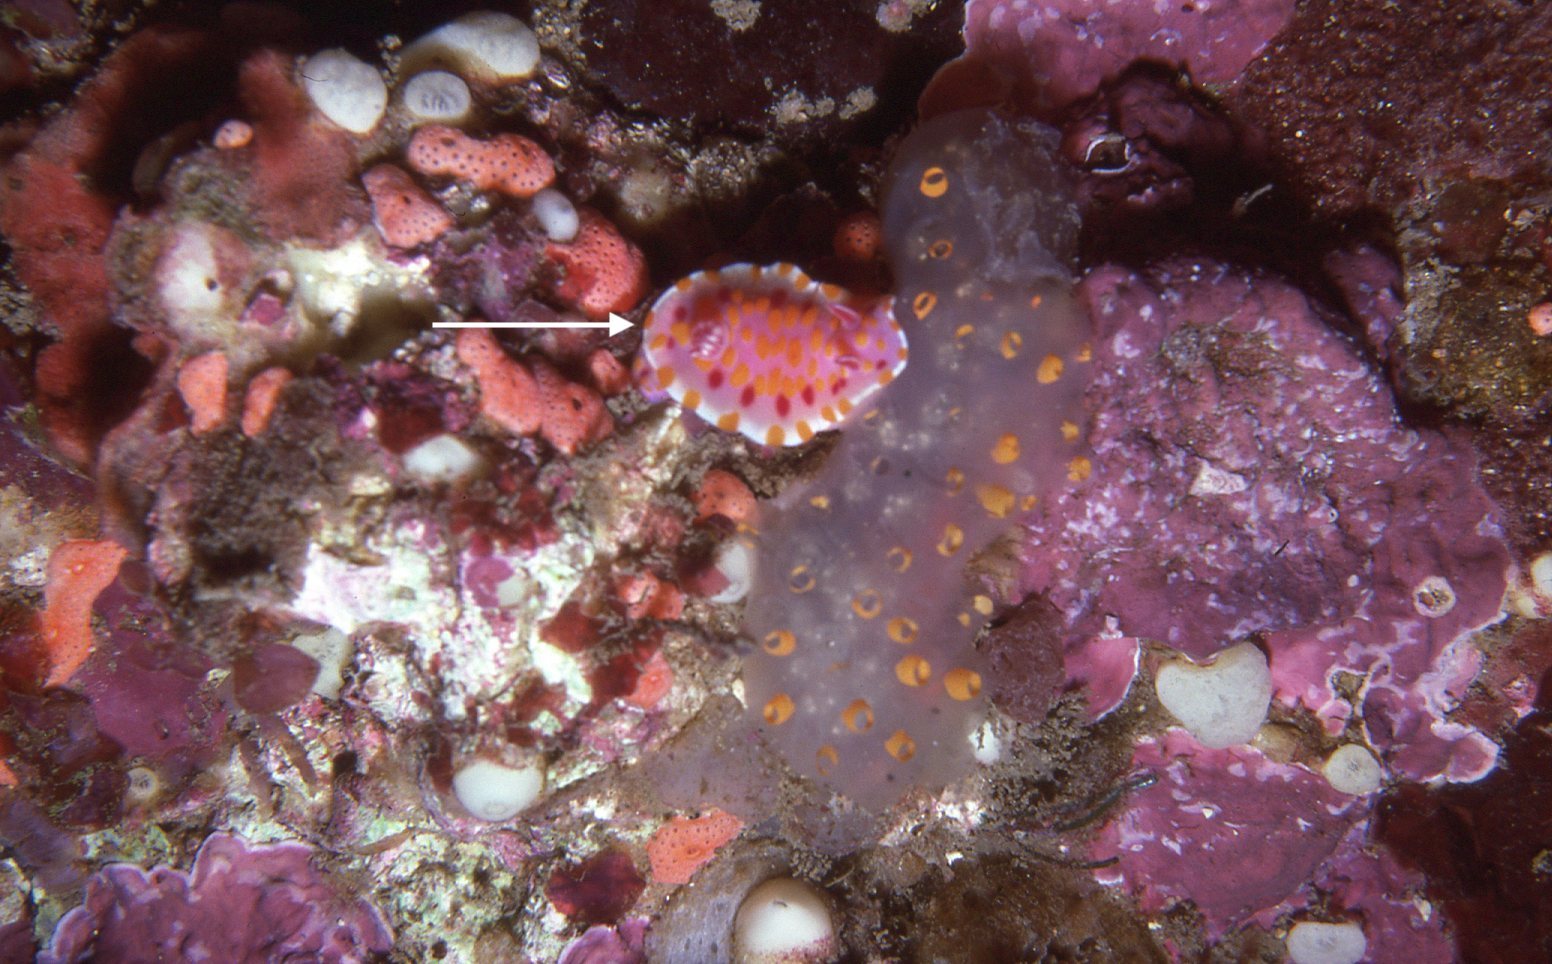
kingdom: Animalia
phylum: Mollusca
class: Gastropoda
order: Nudibranchia
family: Chromodorididae
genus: Ceratosoma
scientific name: Ceratosoma amoenum
